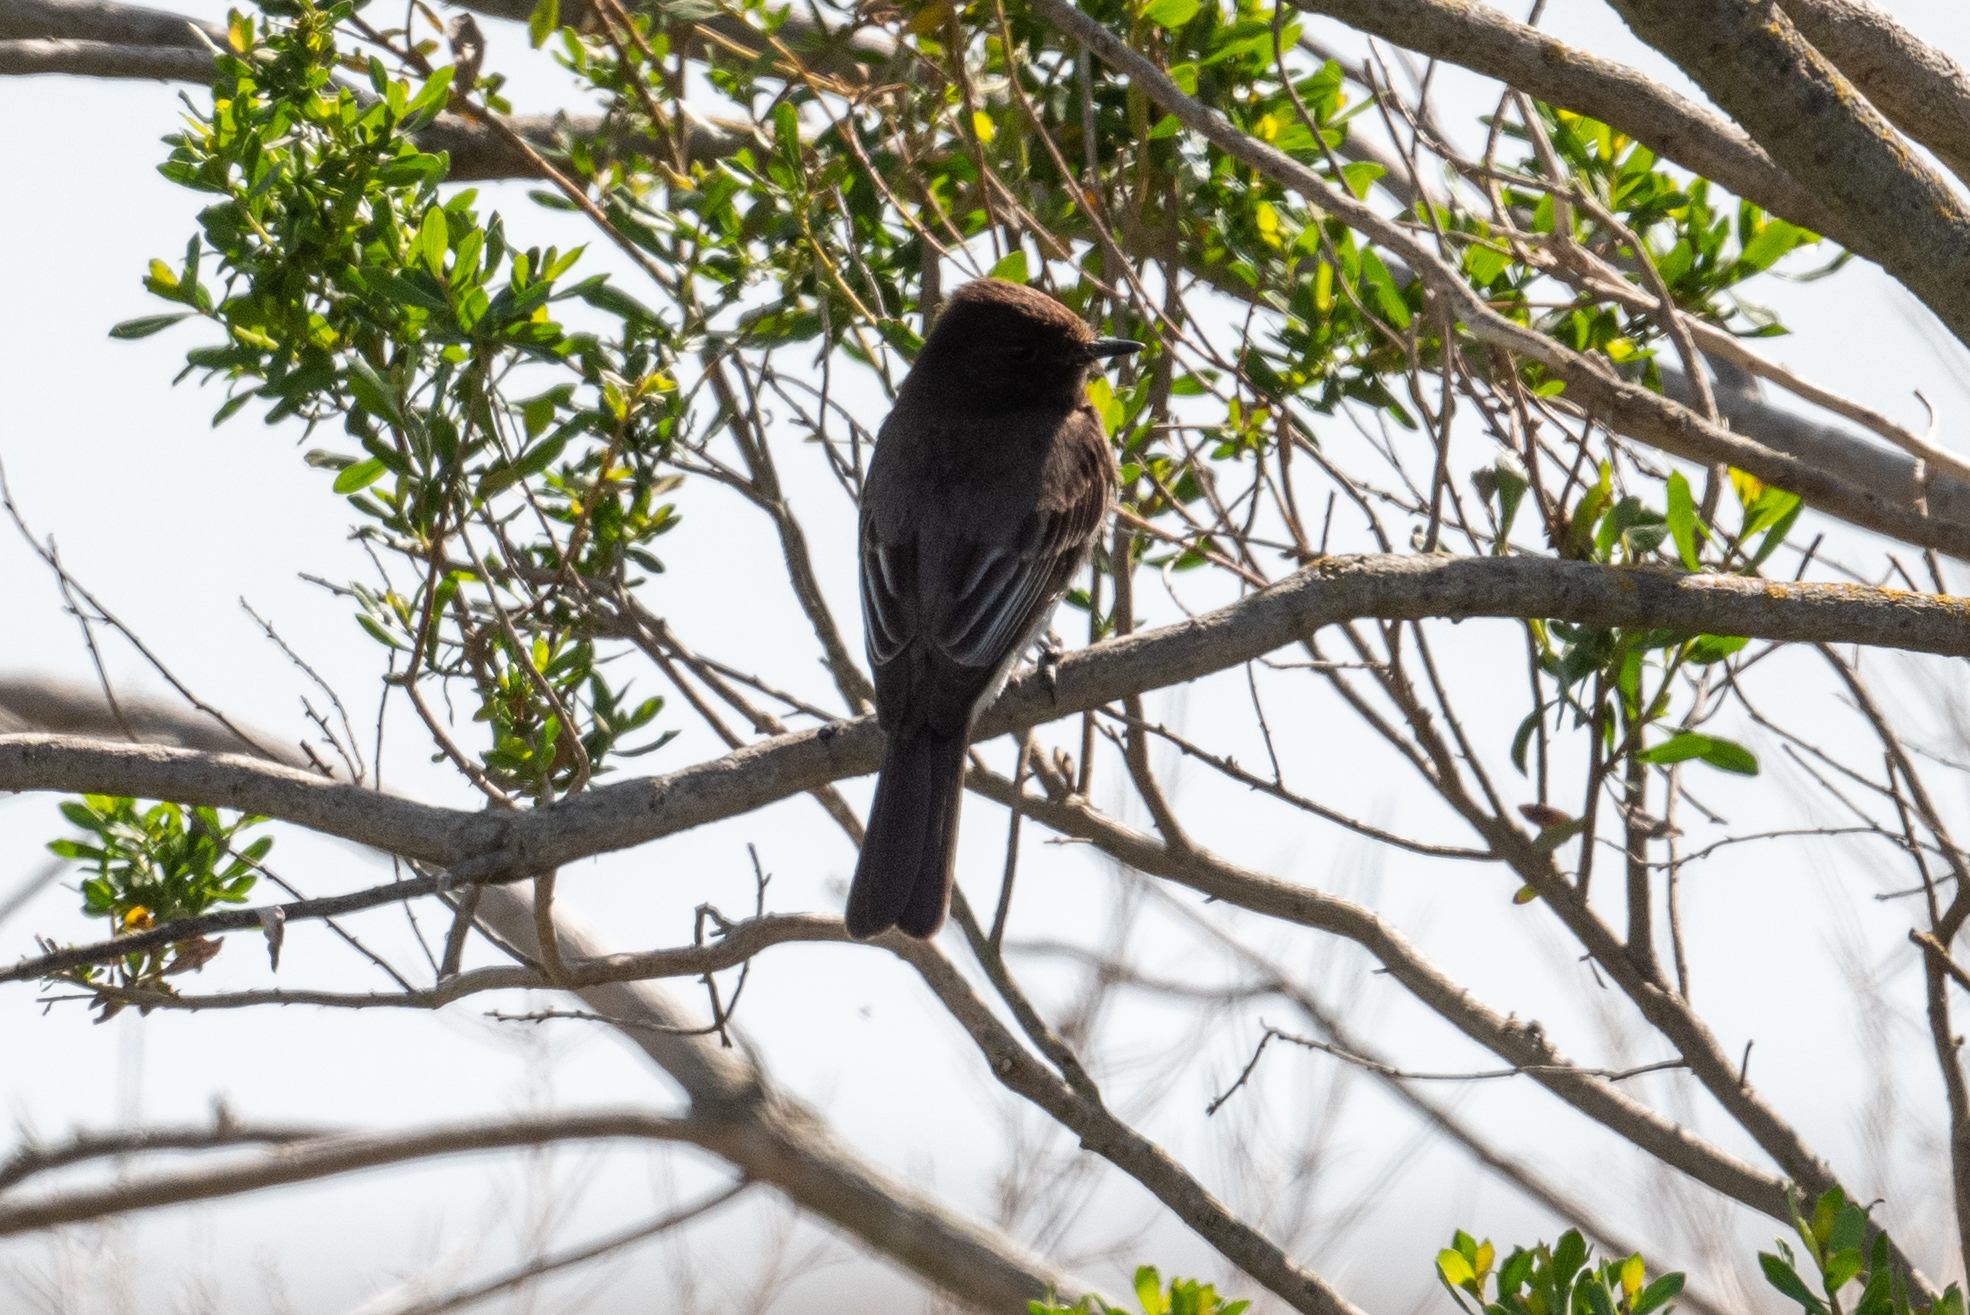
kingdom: Animalia
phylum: Chordata
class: Aves
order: Passeriformes
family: Tyrannidae
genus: Sayornis
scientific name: Sayornis nigricans
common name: Black phoebe
